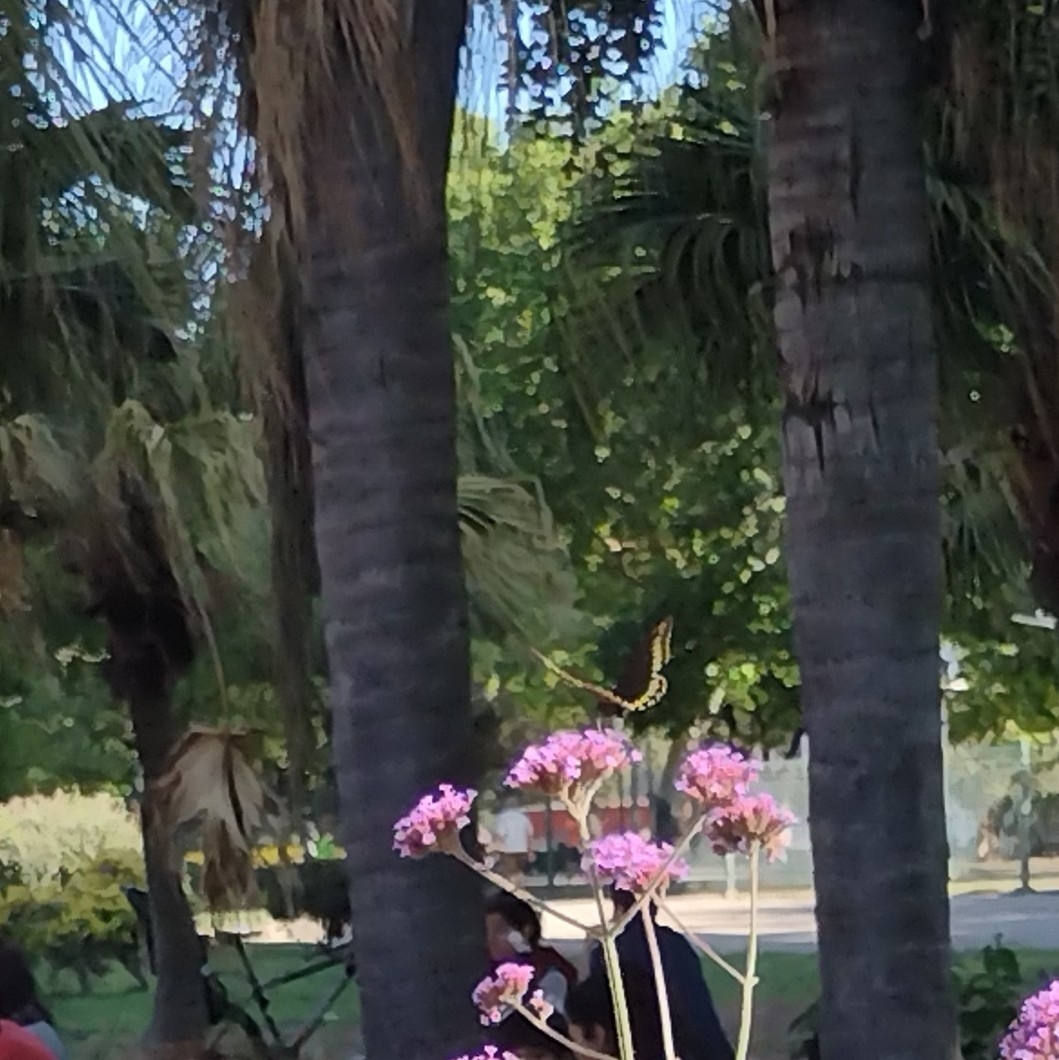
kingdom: Animalia
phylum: Arthropoda
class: Insecta
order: Lepidoptera
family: Papilionidae
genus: Battus
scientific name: Battus polydamas
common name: Polydamas swallowtail
